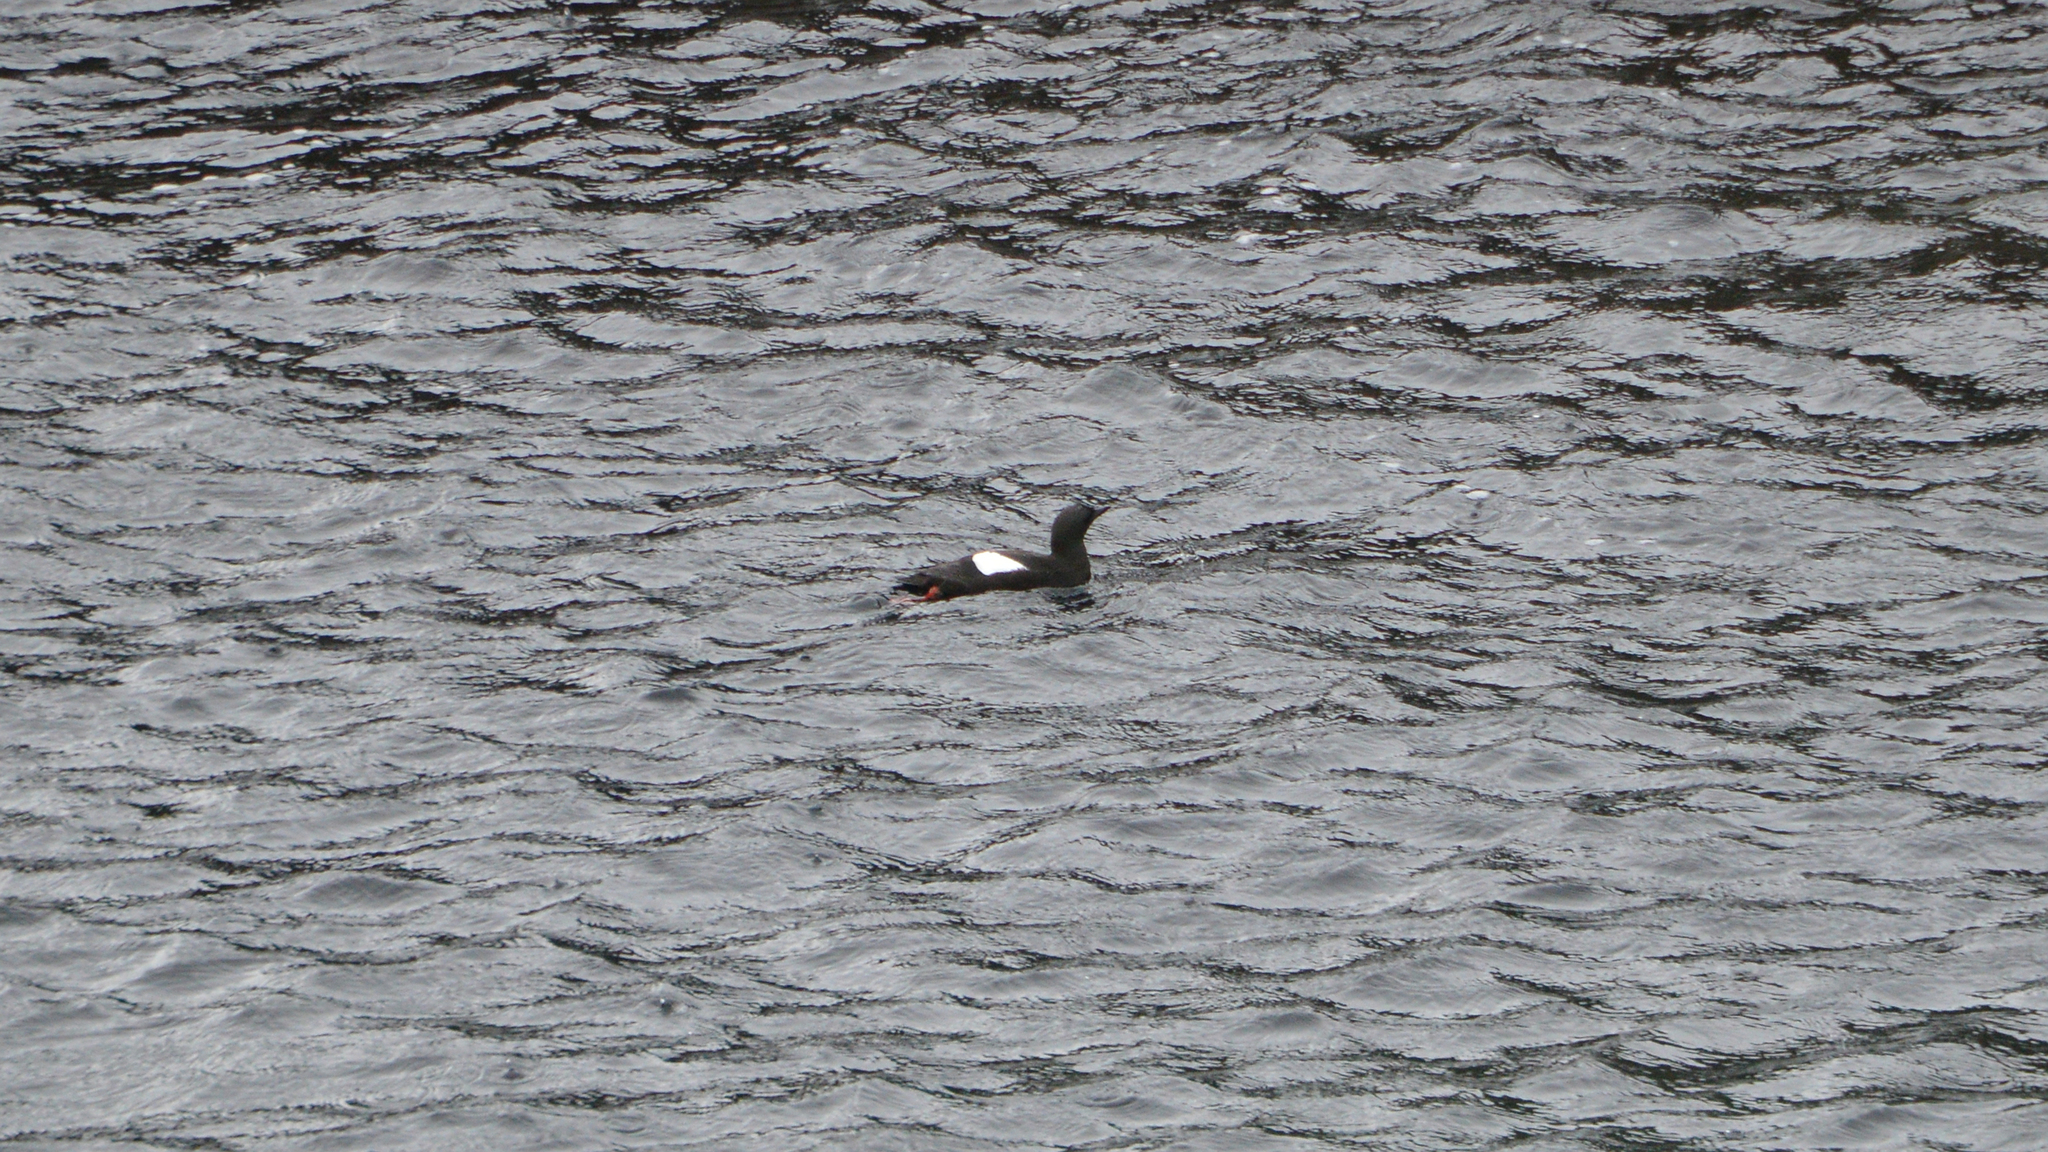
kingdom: Animalia
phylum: Chordata
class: Aves
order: Charadriiformes
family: Alcidae
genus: Cepphus
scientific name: Cepphus grylle
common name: Black guillemot
